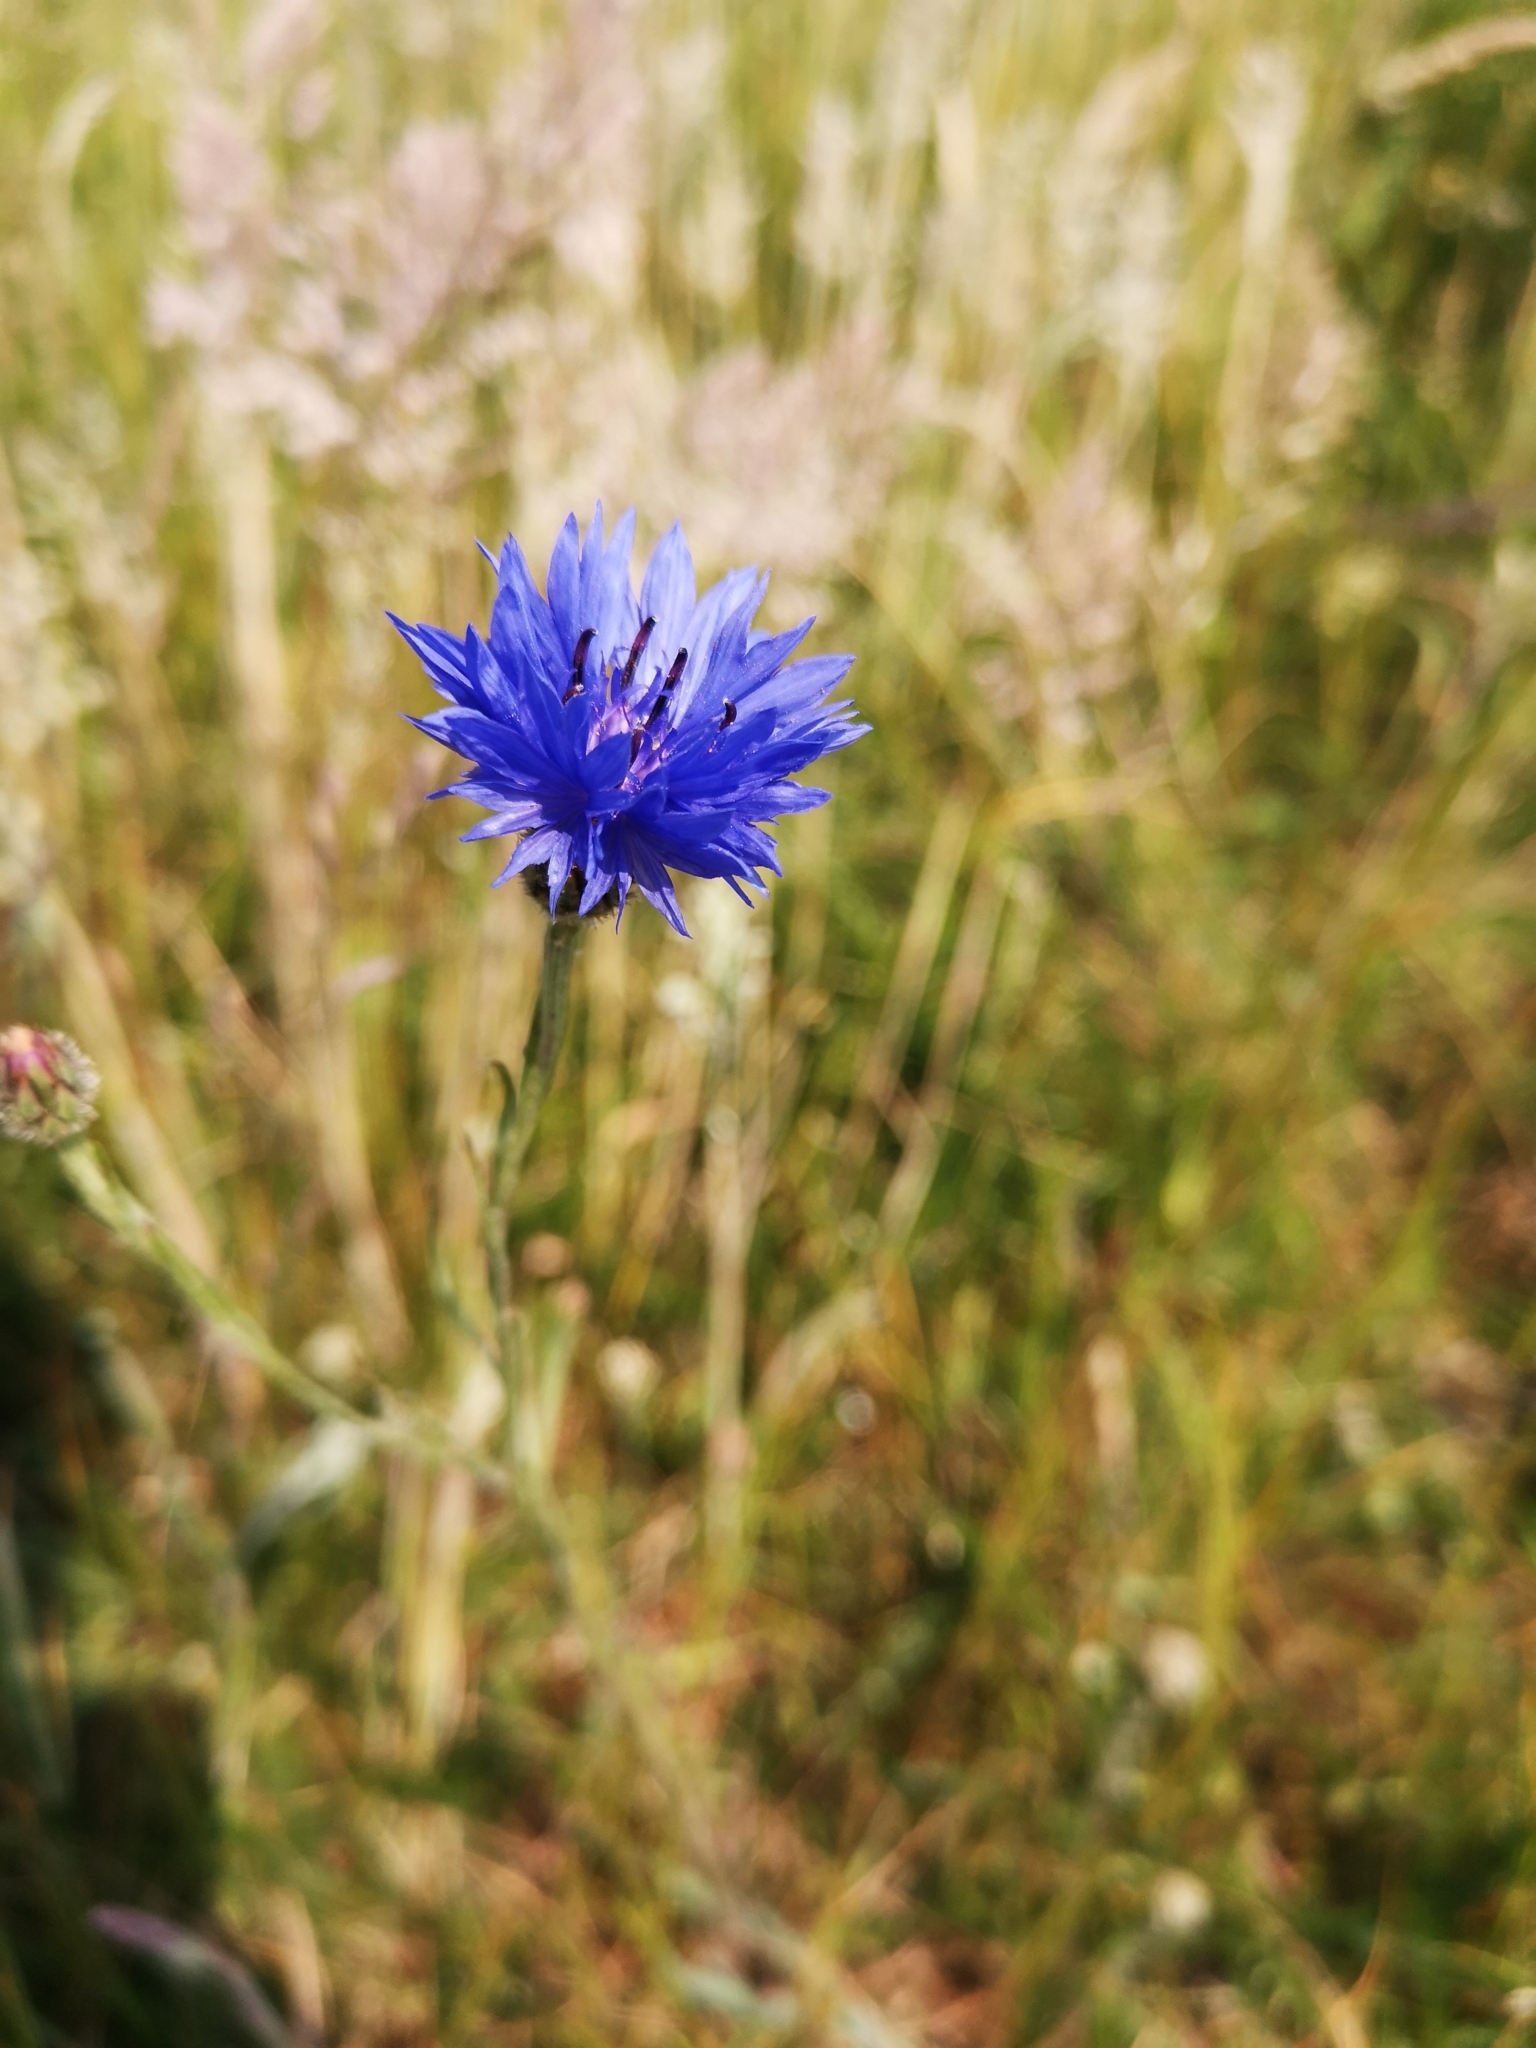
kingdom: Plantae
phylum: Tracheophyta
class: Magnoliopsida
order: Asterales
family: Asteraceae
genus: Centaurea
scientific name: Centaurea cyanus
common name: Cornflower
